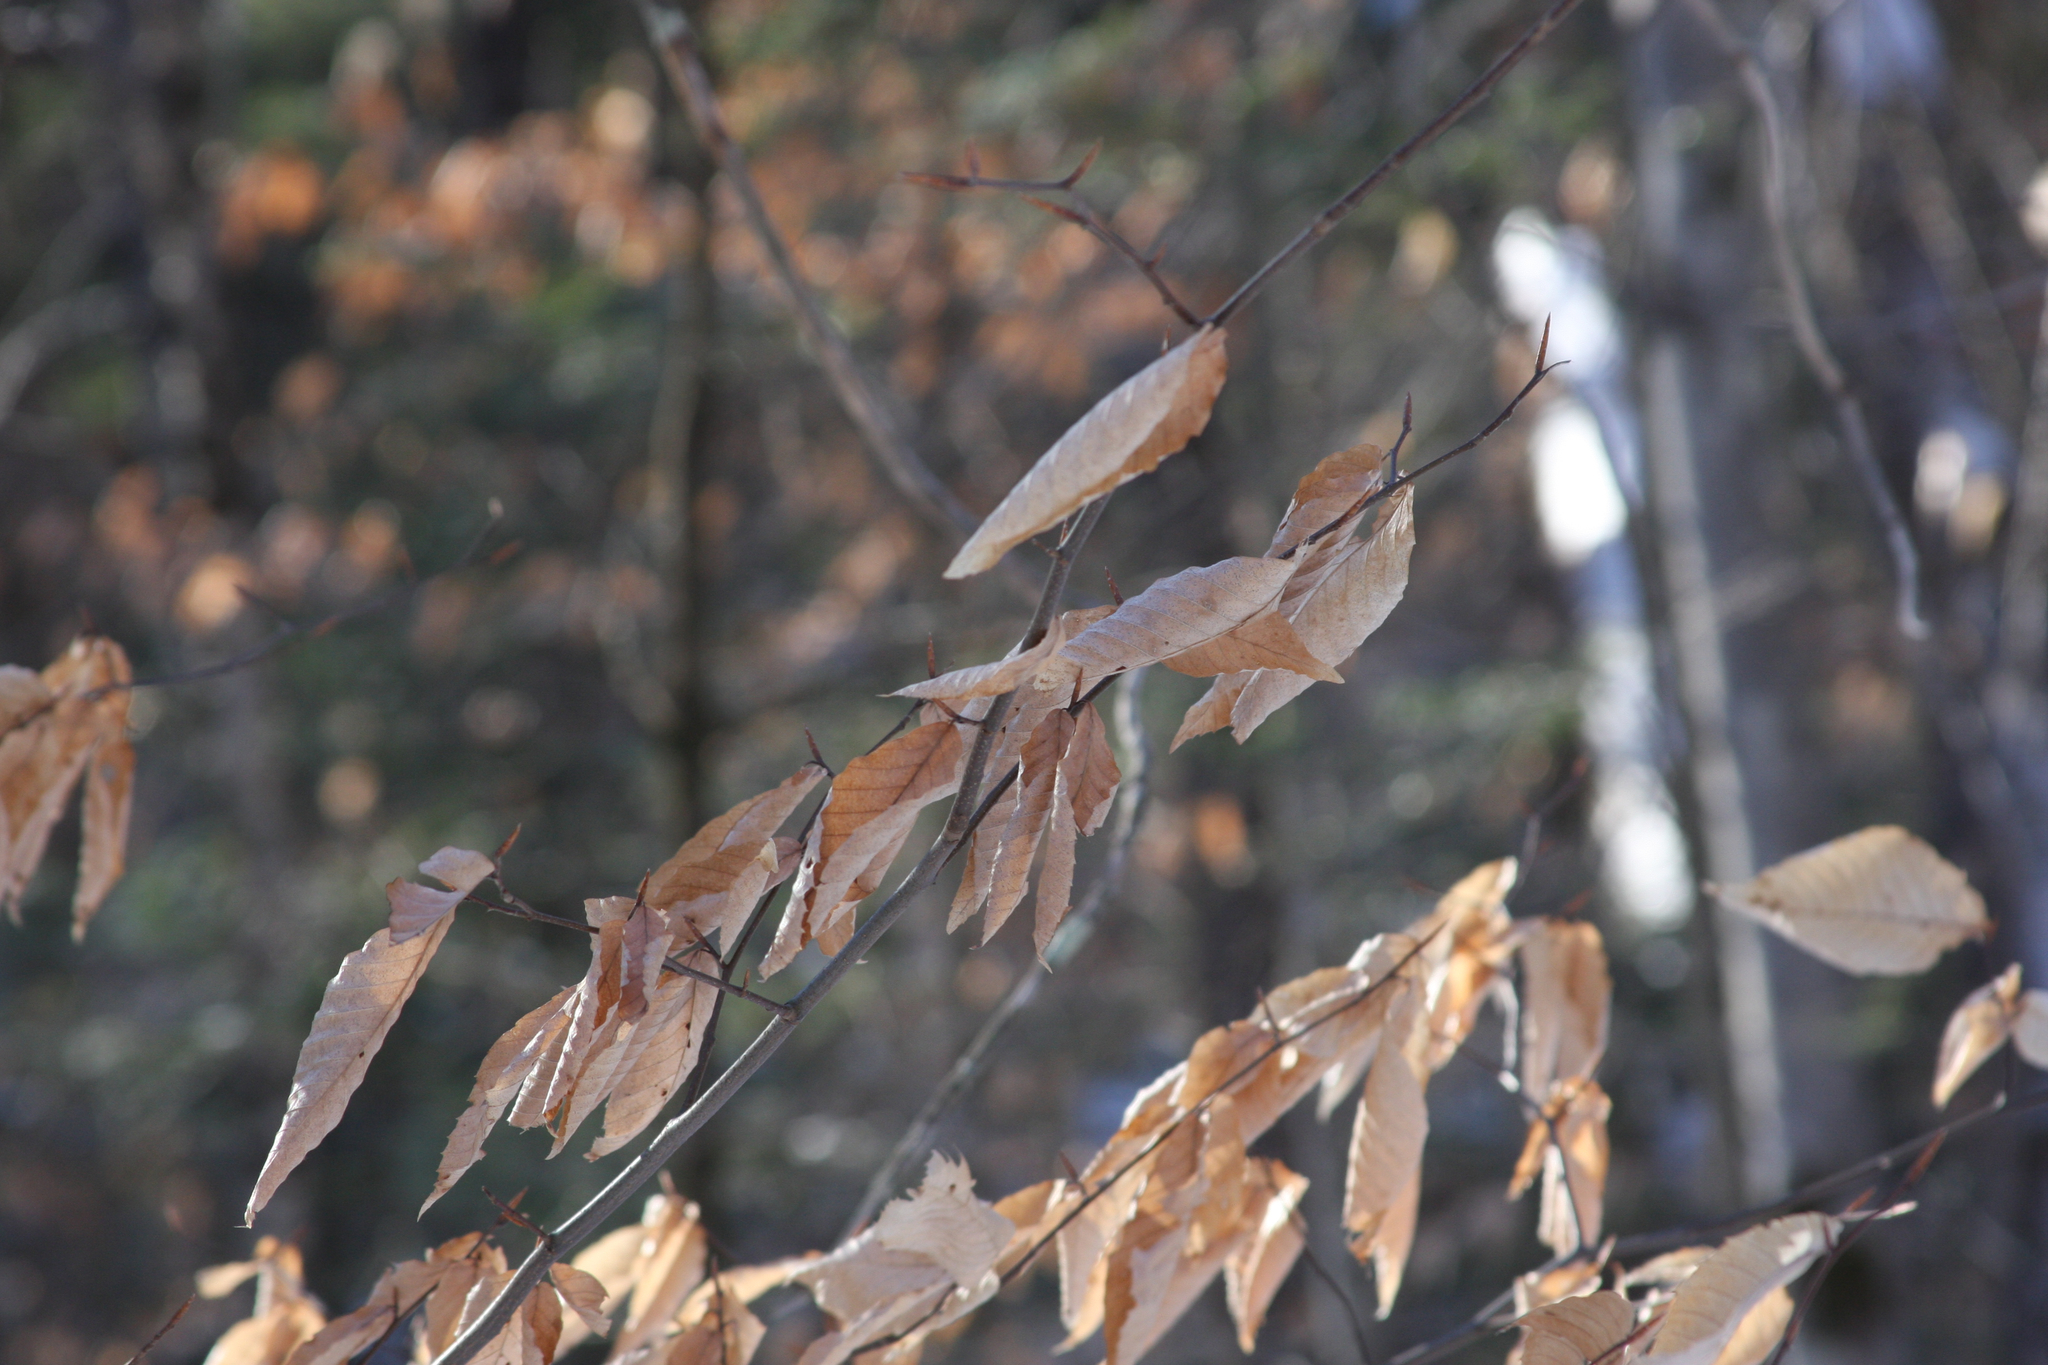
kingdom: Plantae
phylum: Tracheophyta
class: Magnoliopsida
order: Fagales
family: Fagaceae
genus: Fagus
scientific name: Fagus grandifolia
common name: American beech
